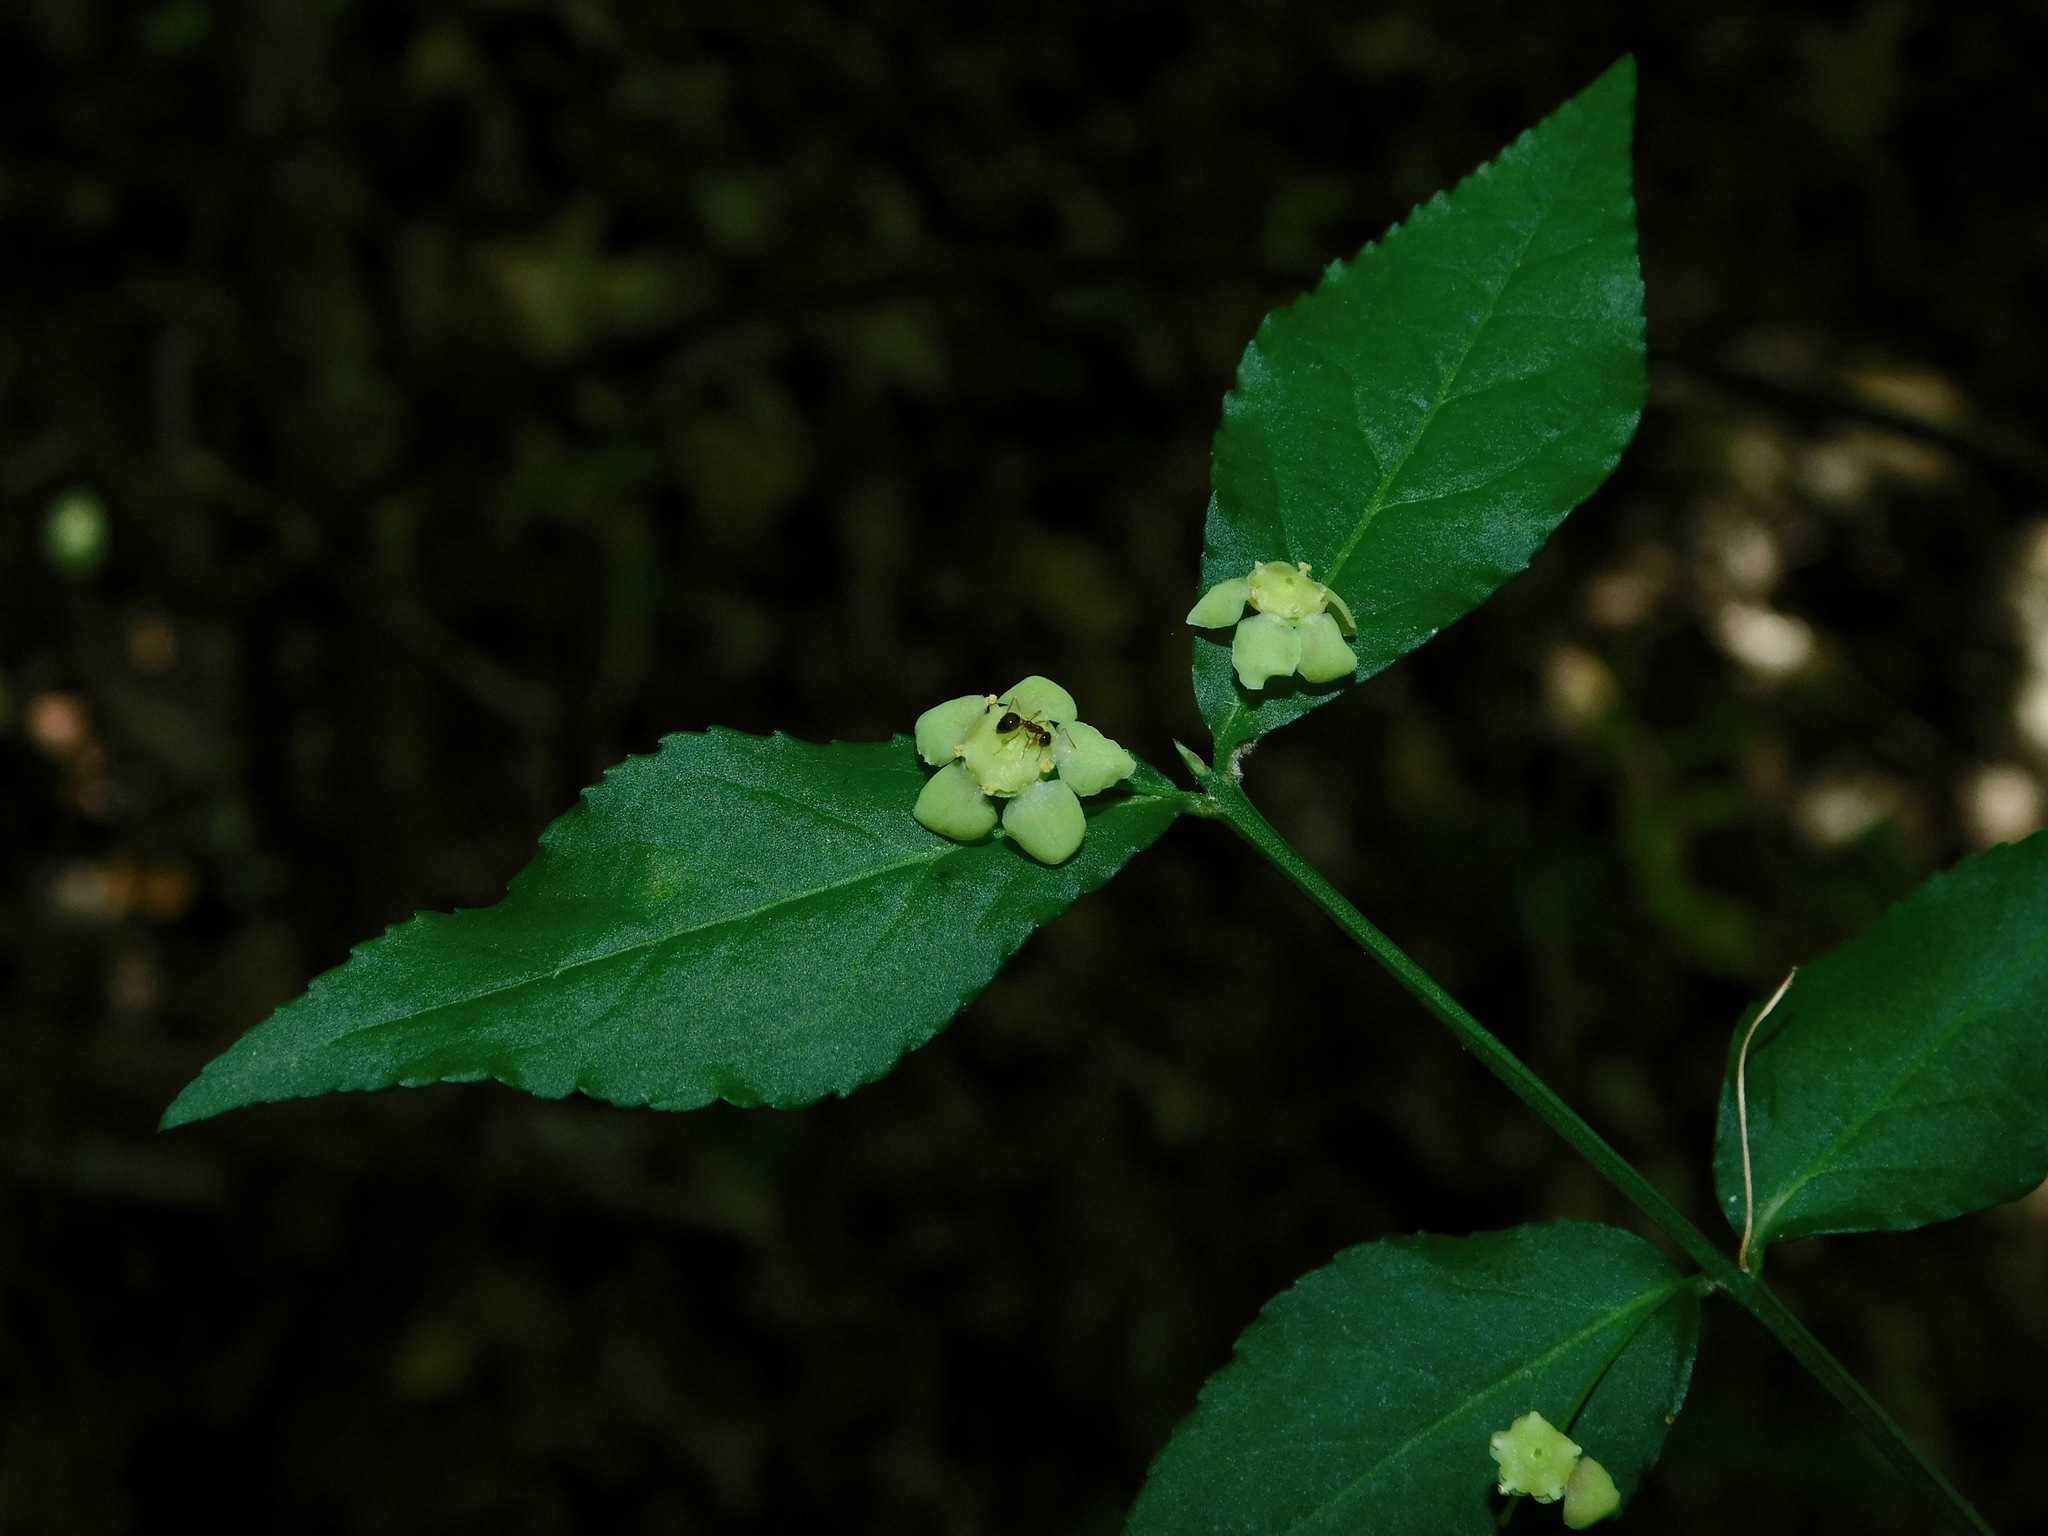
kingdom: Plantae
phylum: Tracheophyta
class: Magnoliopsida
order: Celastrales
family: Celastraceae
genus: Euonymus
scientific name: Euonymus americanus
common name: Bursting-heart
